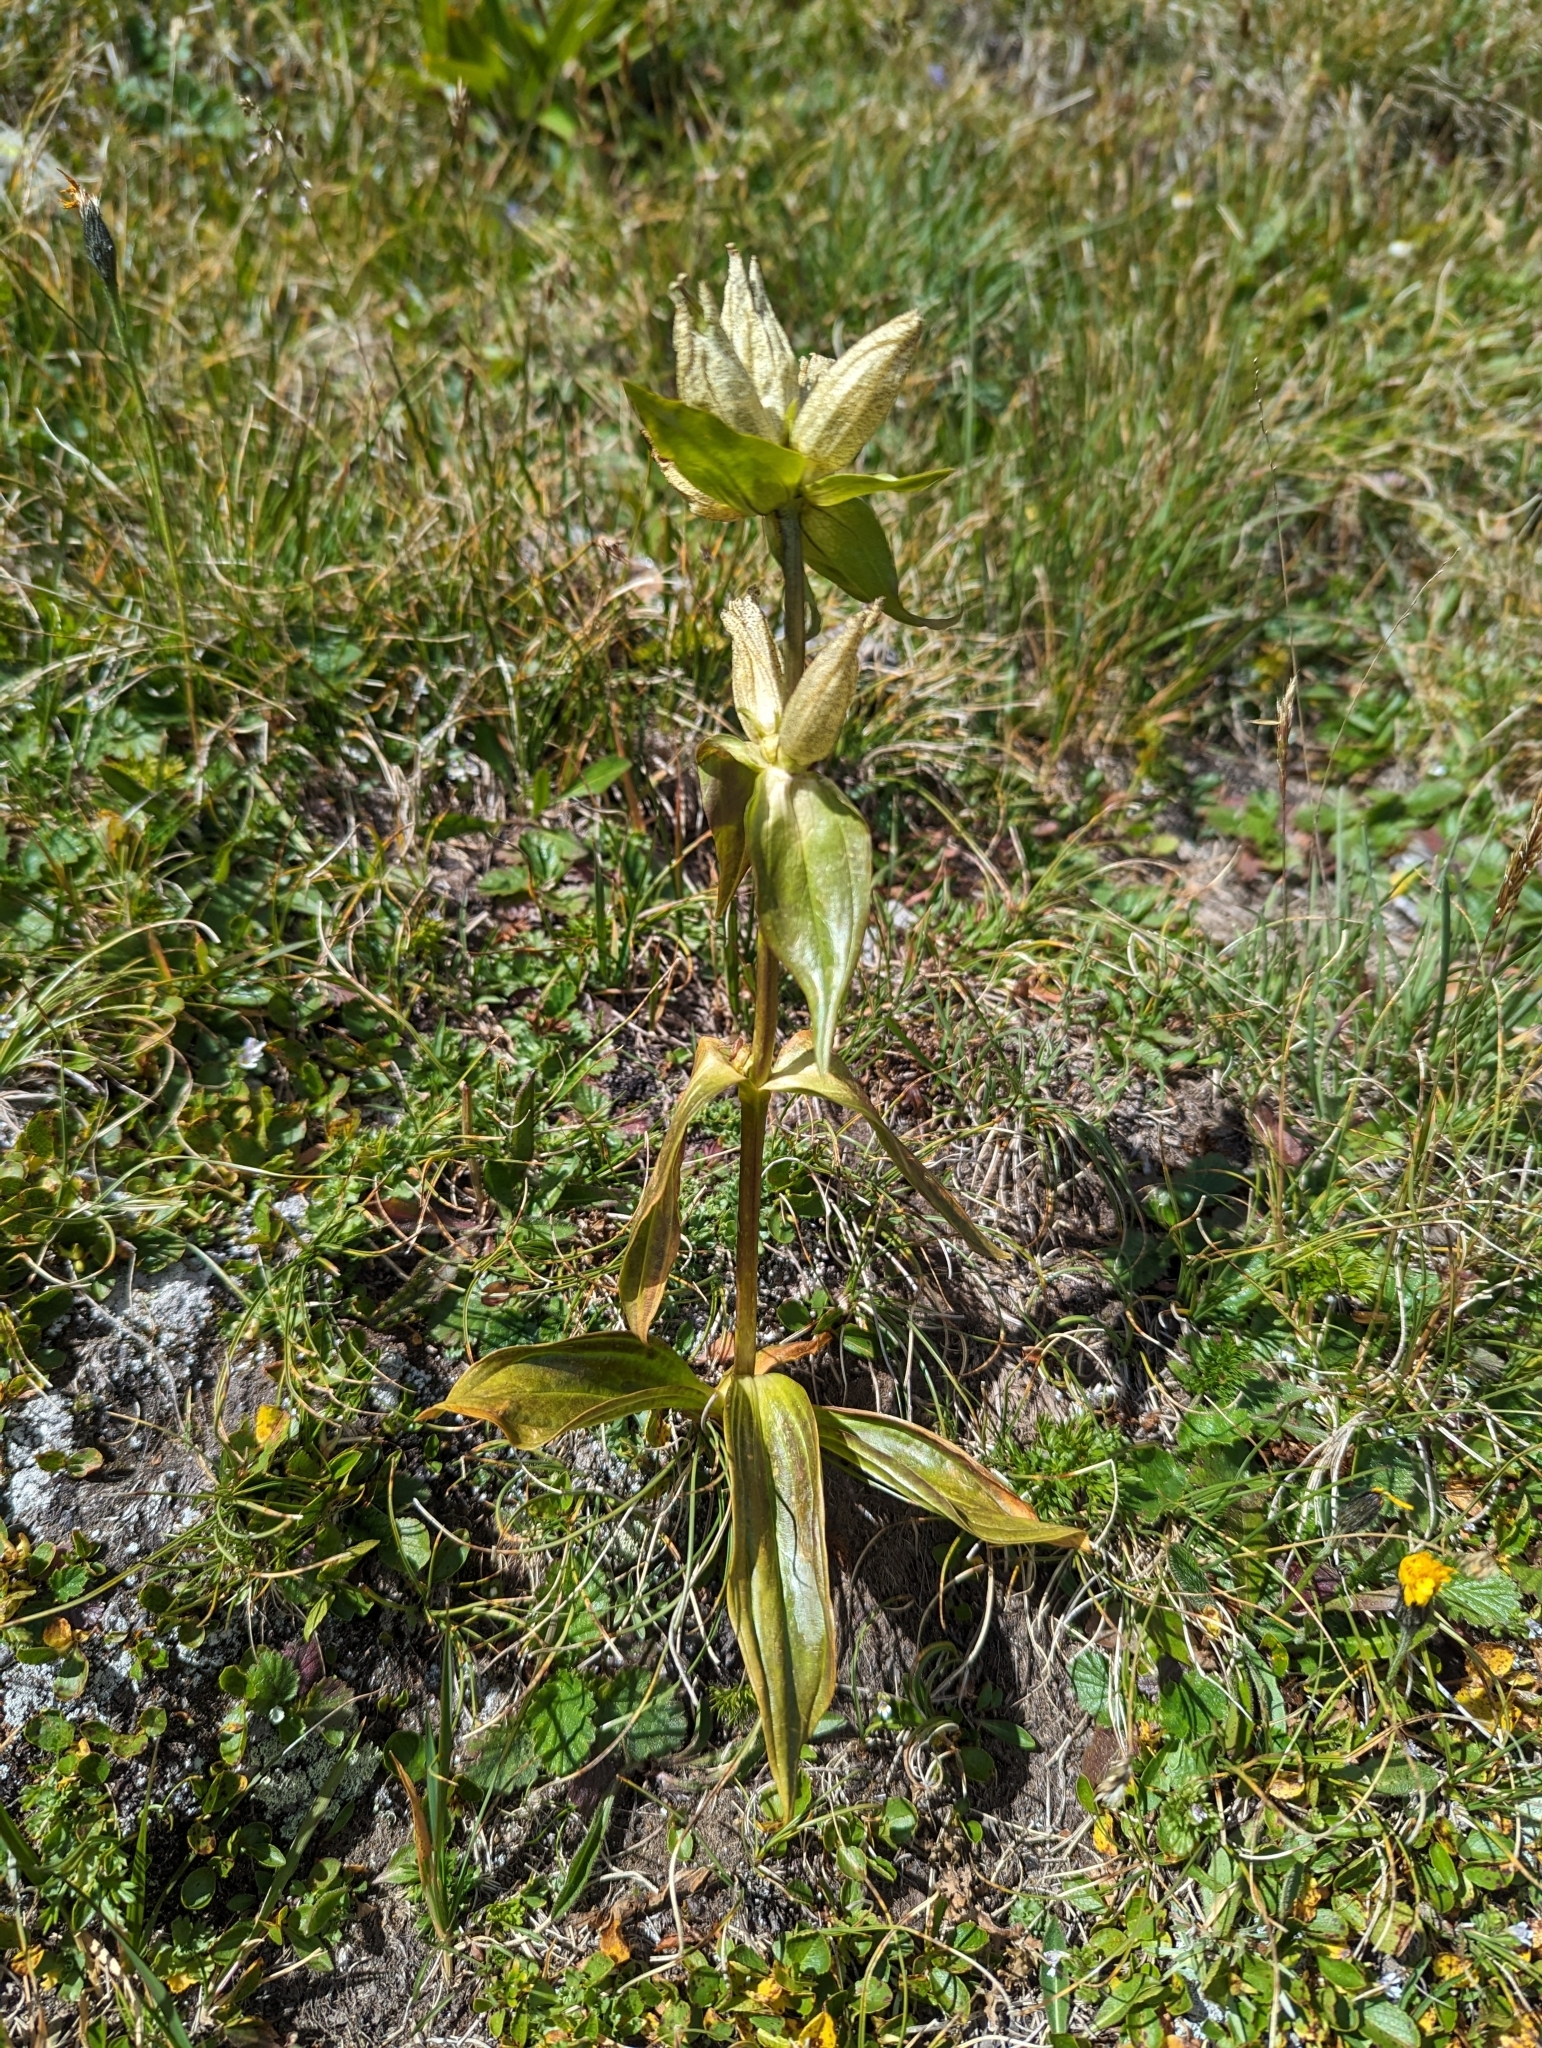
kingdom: Plantae
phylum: Tracheophyta
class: Magnoliopsida
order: Gentianales
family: Gentianaceae
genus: Gentiana
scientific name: Gentiana punctata
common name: Spotted gentian
